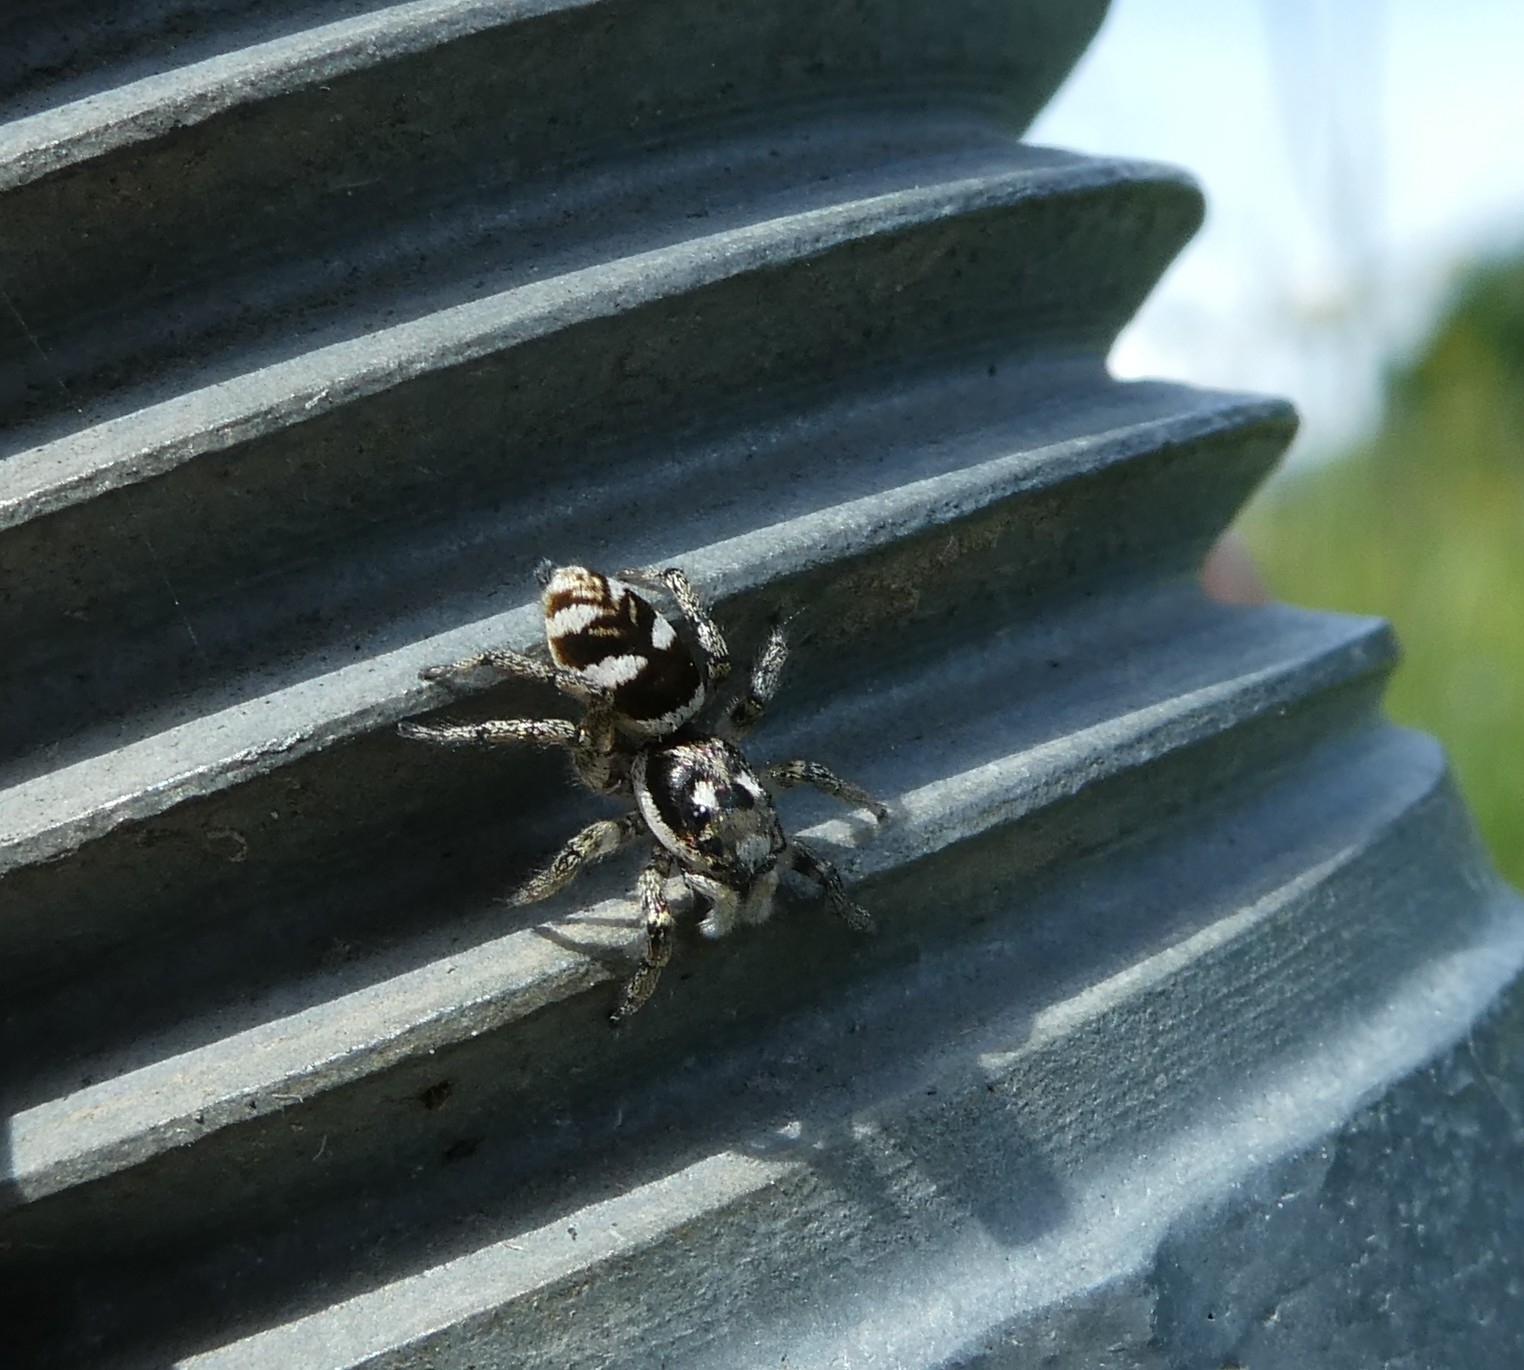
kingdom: Animalia
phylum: Arthropoda
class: Arachnida
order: Araneae
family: Salticidae
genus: Salticus
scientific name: Salticus scenicus
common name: Zebra jumper
